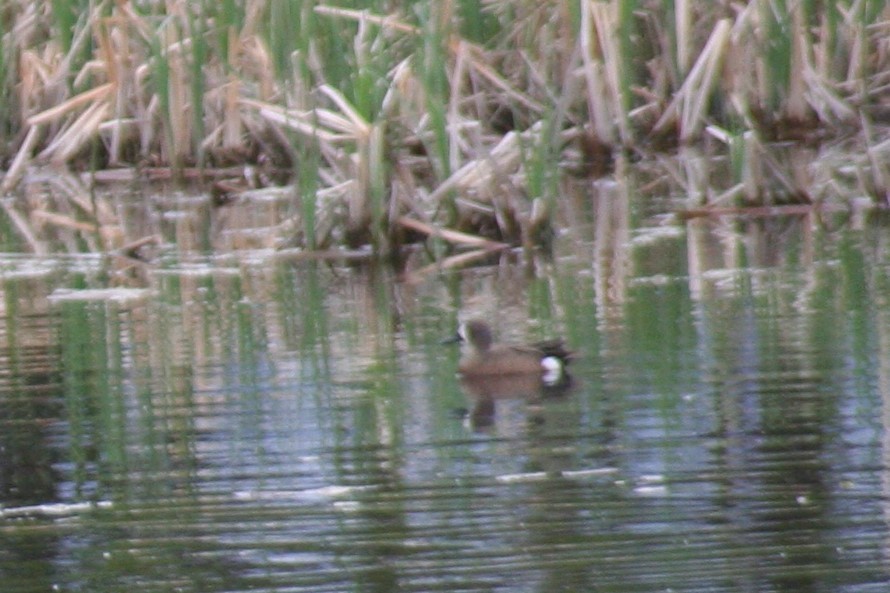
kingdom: Animalia
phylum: Chordata
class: Aves
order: Anseriformes
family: Anatidae
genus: Spatula
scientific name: Spatula discors
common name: Blue-winged teal
